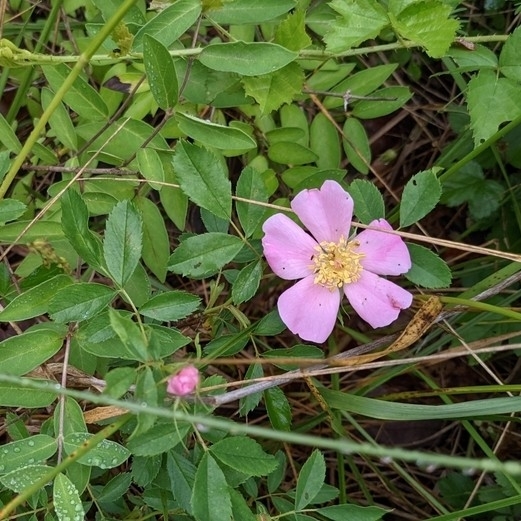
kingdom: Plantae
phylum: Tracheophyta
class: Magnoliopsida
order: Rosales
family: Rosaceae
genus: Rosa
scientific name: Rosa carolina
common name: Pasture rose
